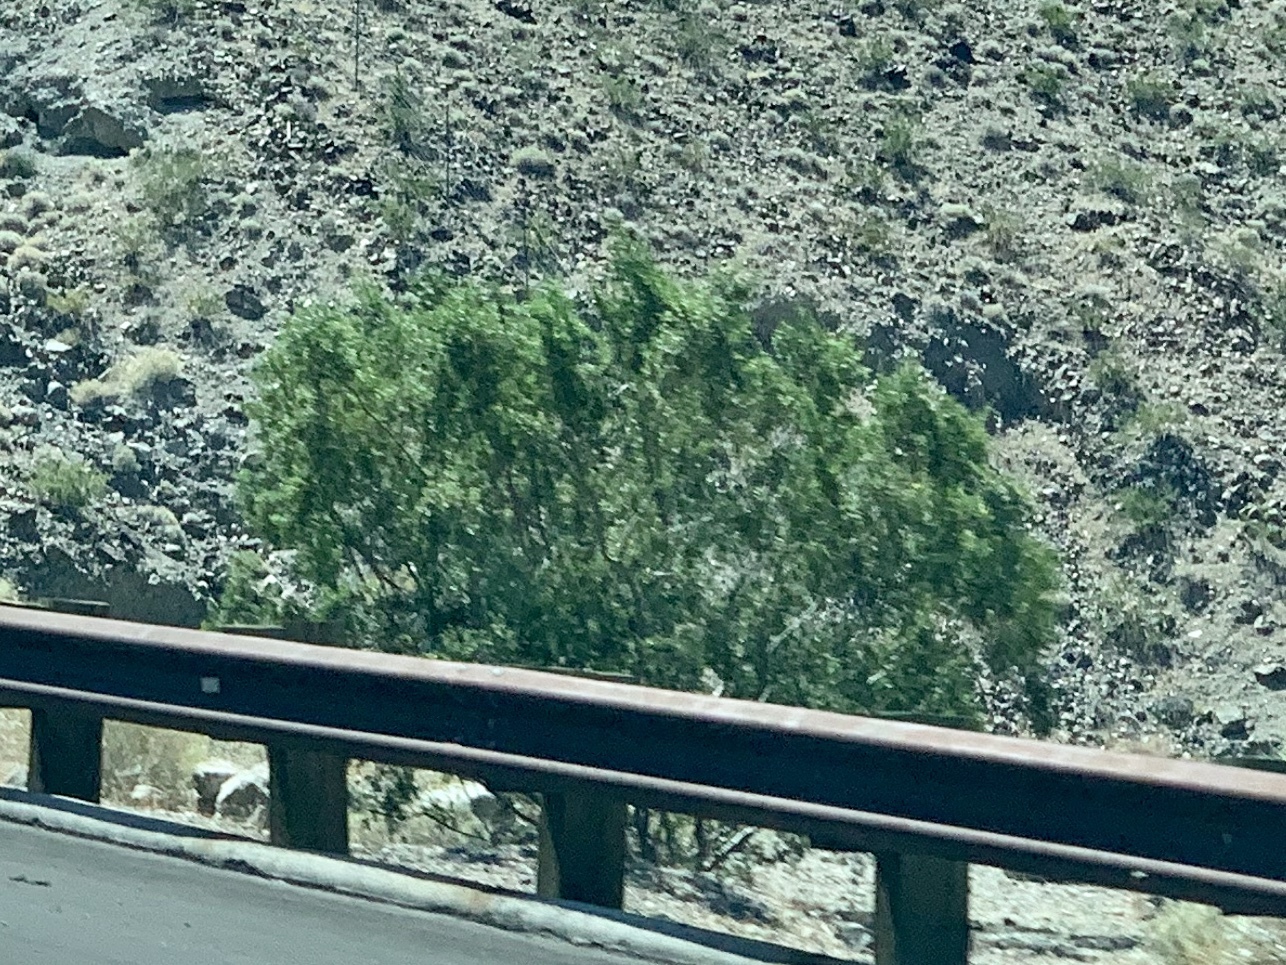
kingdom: Plantae
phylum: Tracheophyta
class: Magnoliopsida
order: Zygophyllales
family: Zygophyllaceae
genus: Larrea
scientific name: Larrea tridentata
